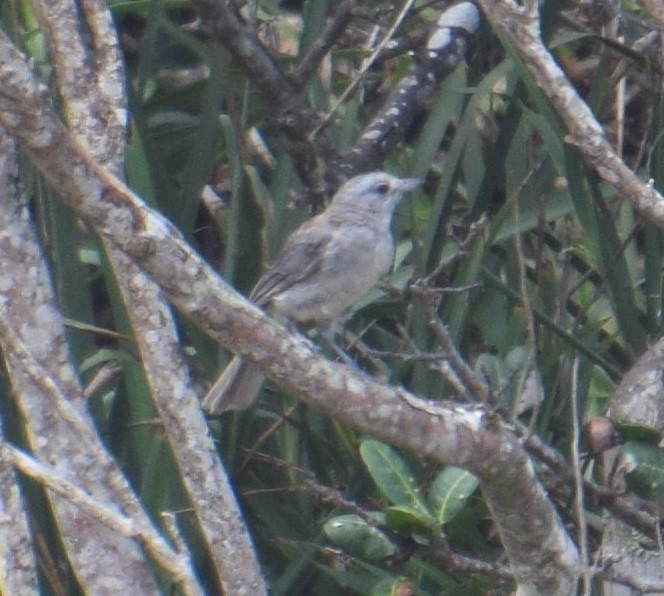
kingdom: Animalia
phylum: Chordata
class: Aves
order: Passeriformes
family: Pachycephalidae
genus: Colluricincla
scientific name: Colluricincla harmonica
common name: Grey shrikethrush
